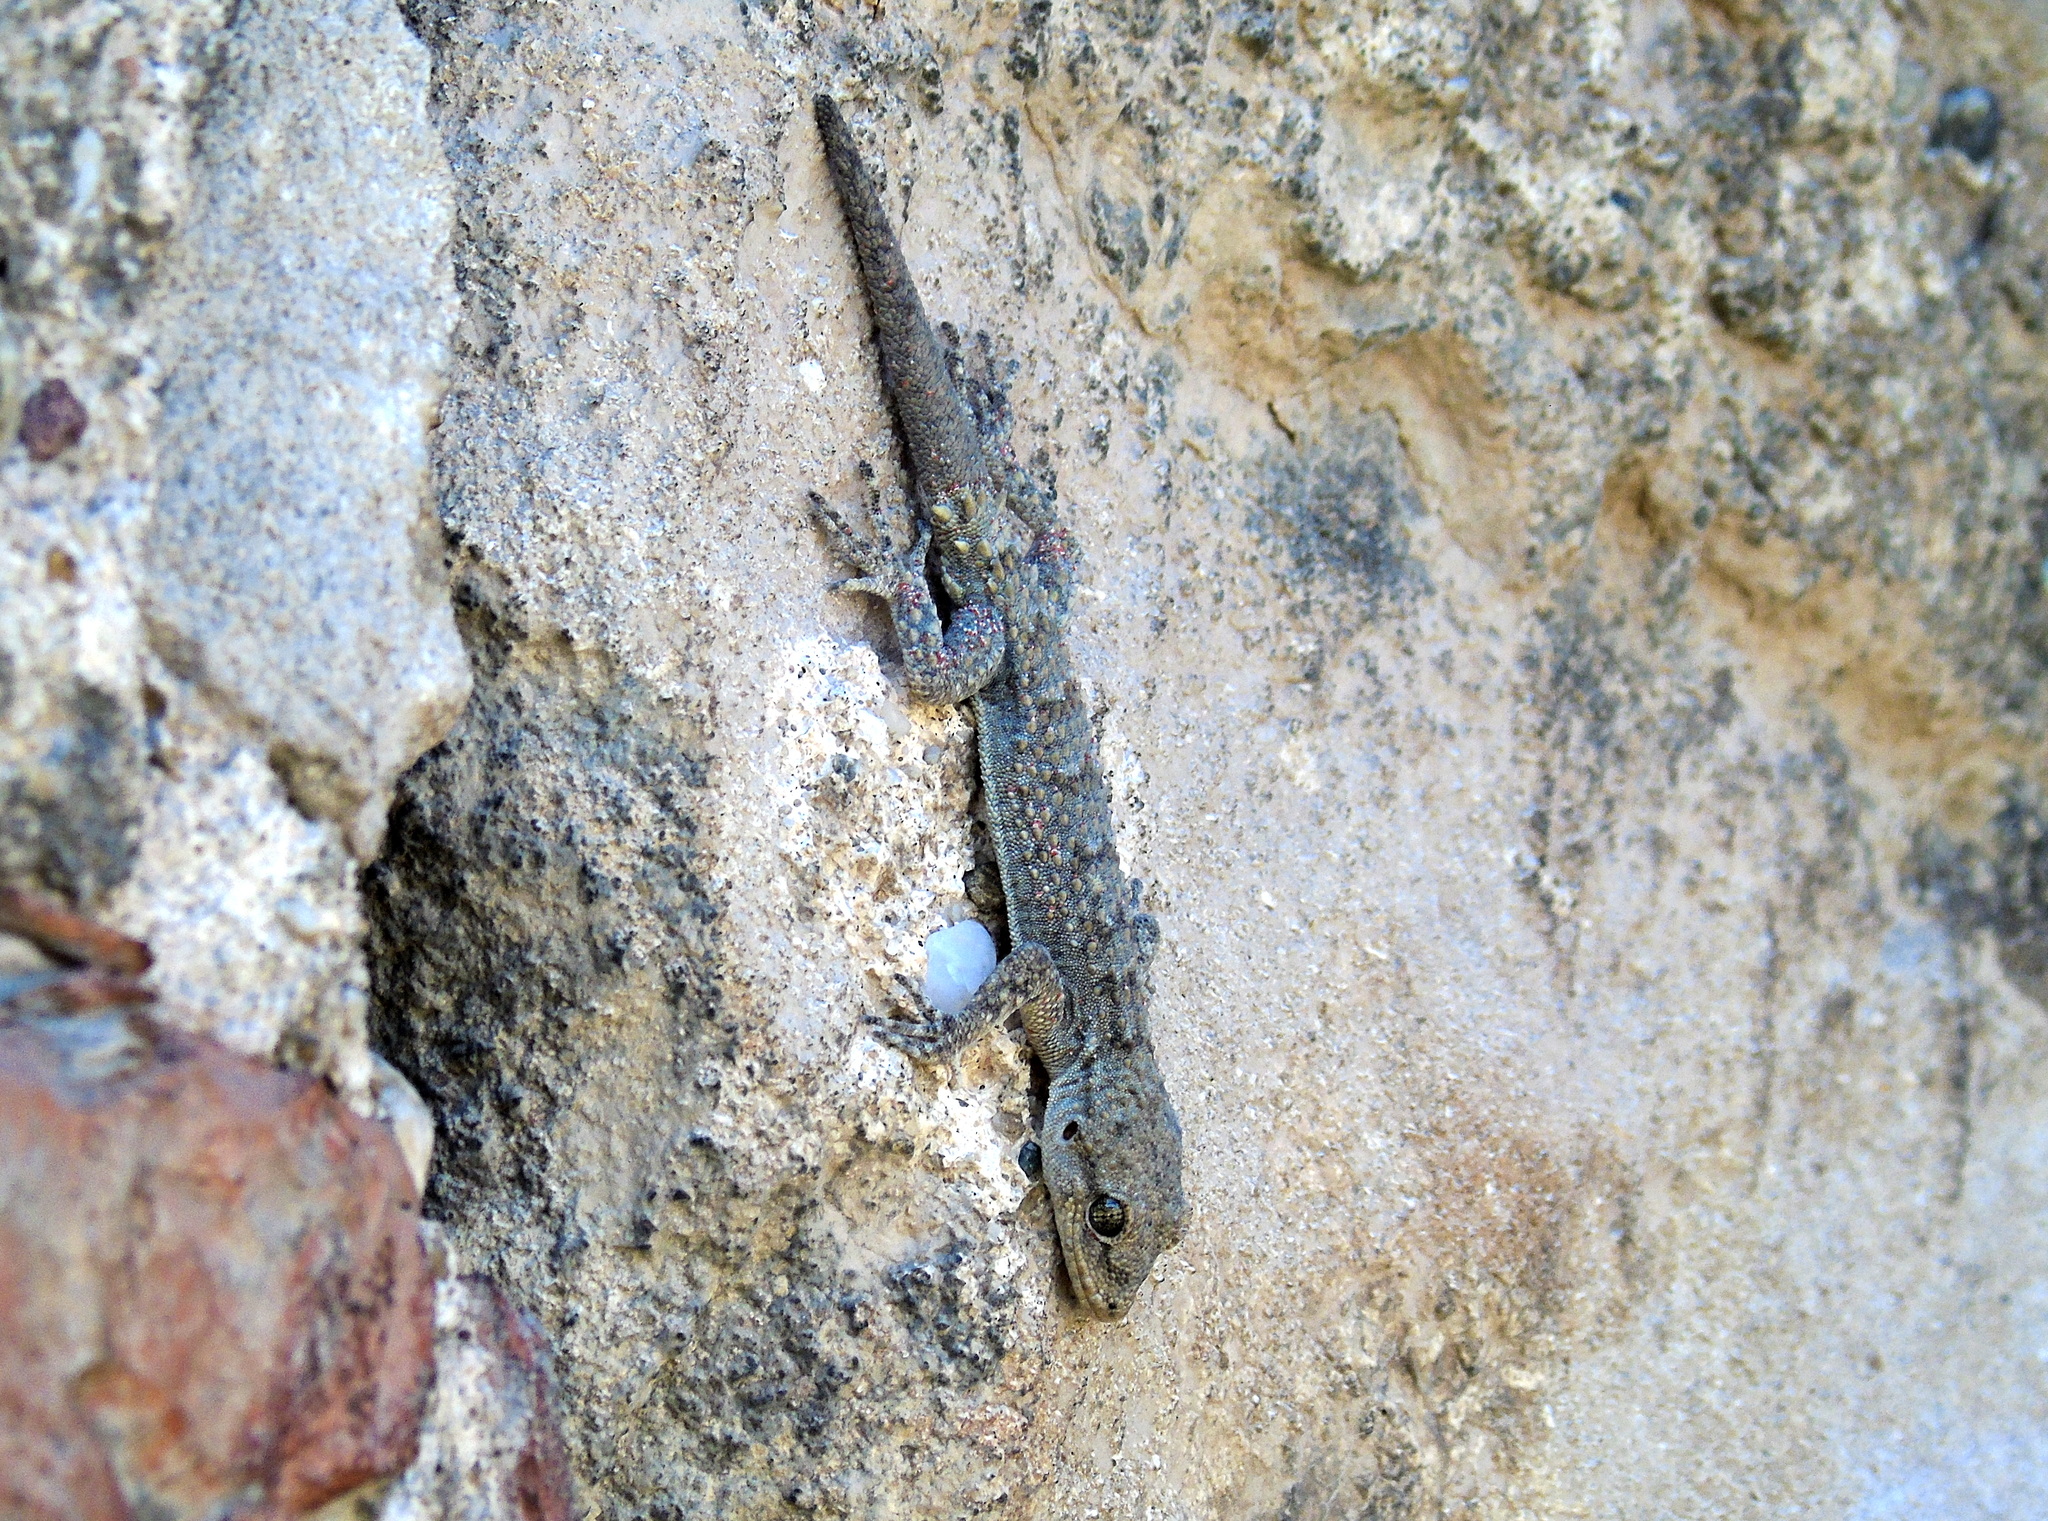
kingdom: Animalia
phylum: Chordata
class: Squamata
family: Gekkonidae
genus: Mediodactylus
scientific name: Mediodactylus kotschyi
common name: Kotschy's gecko
